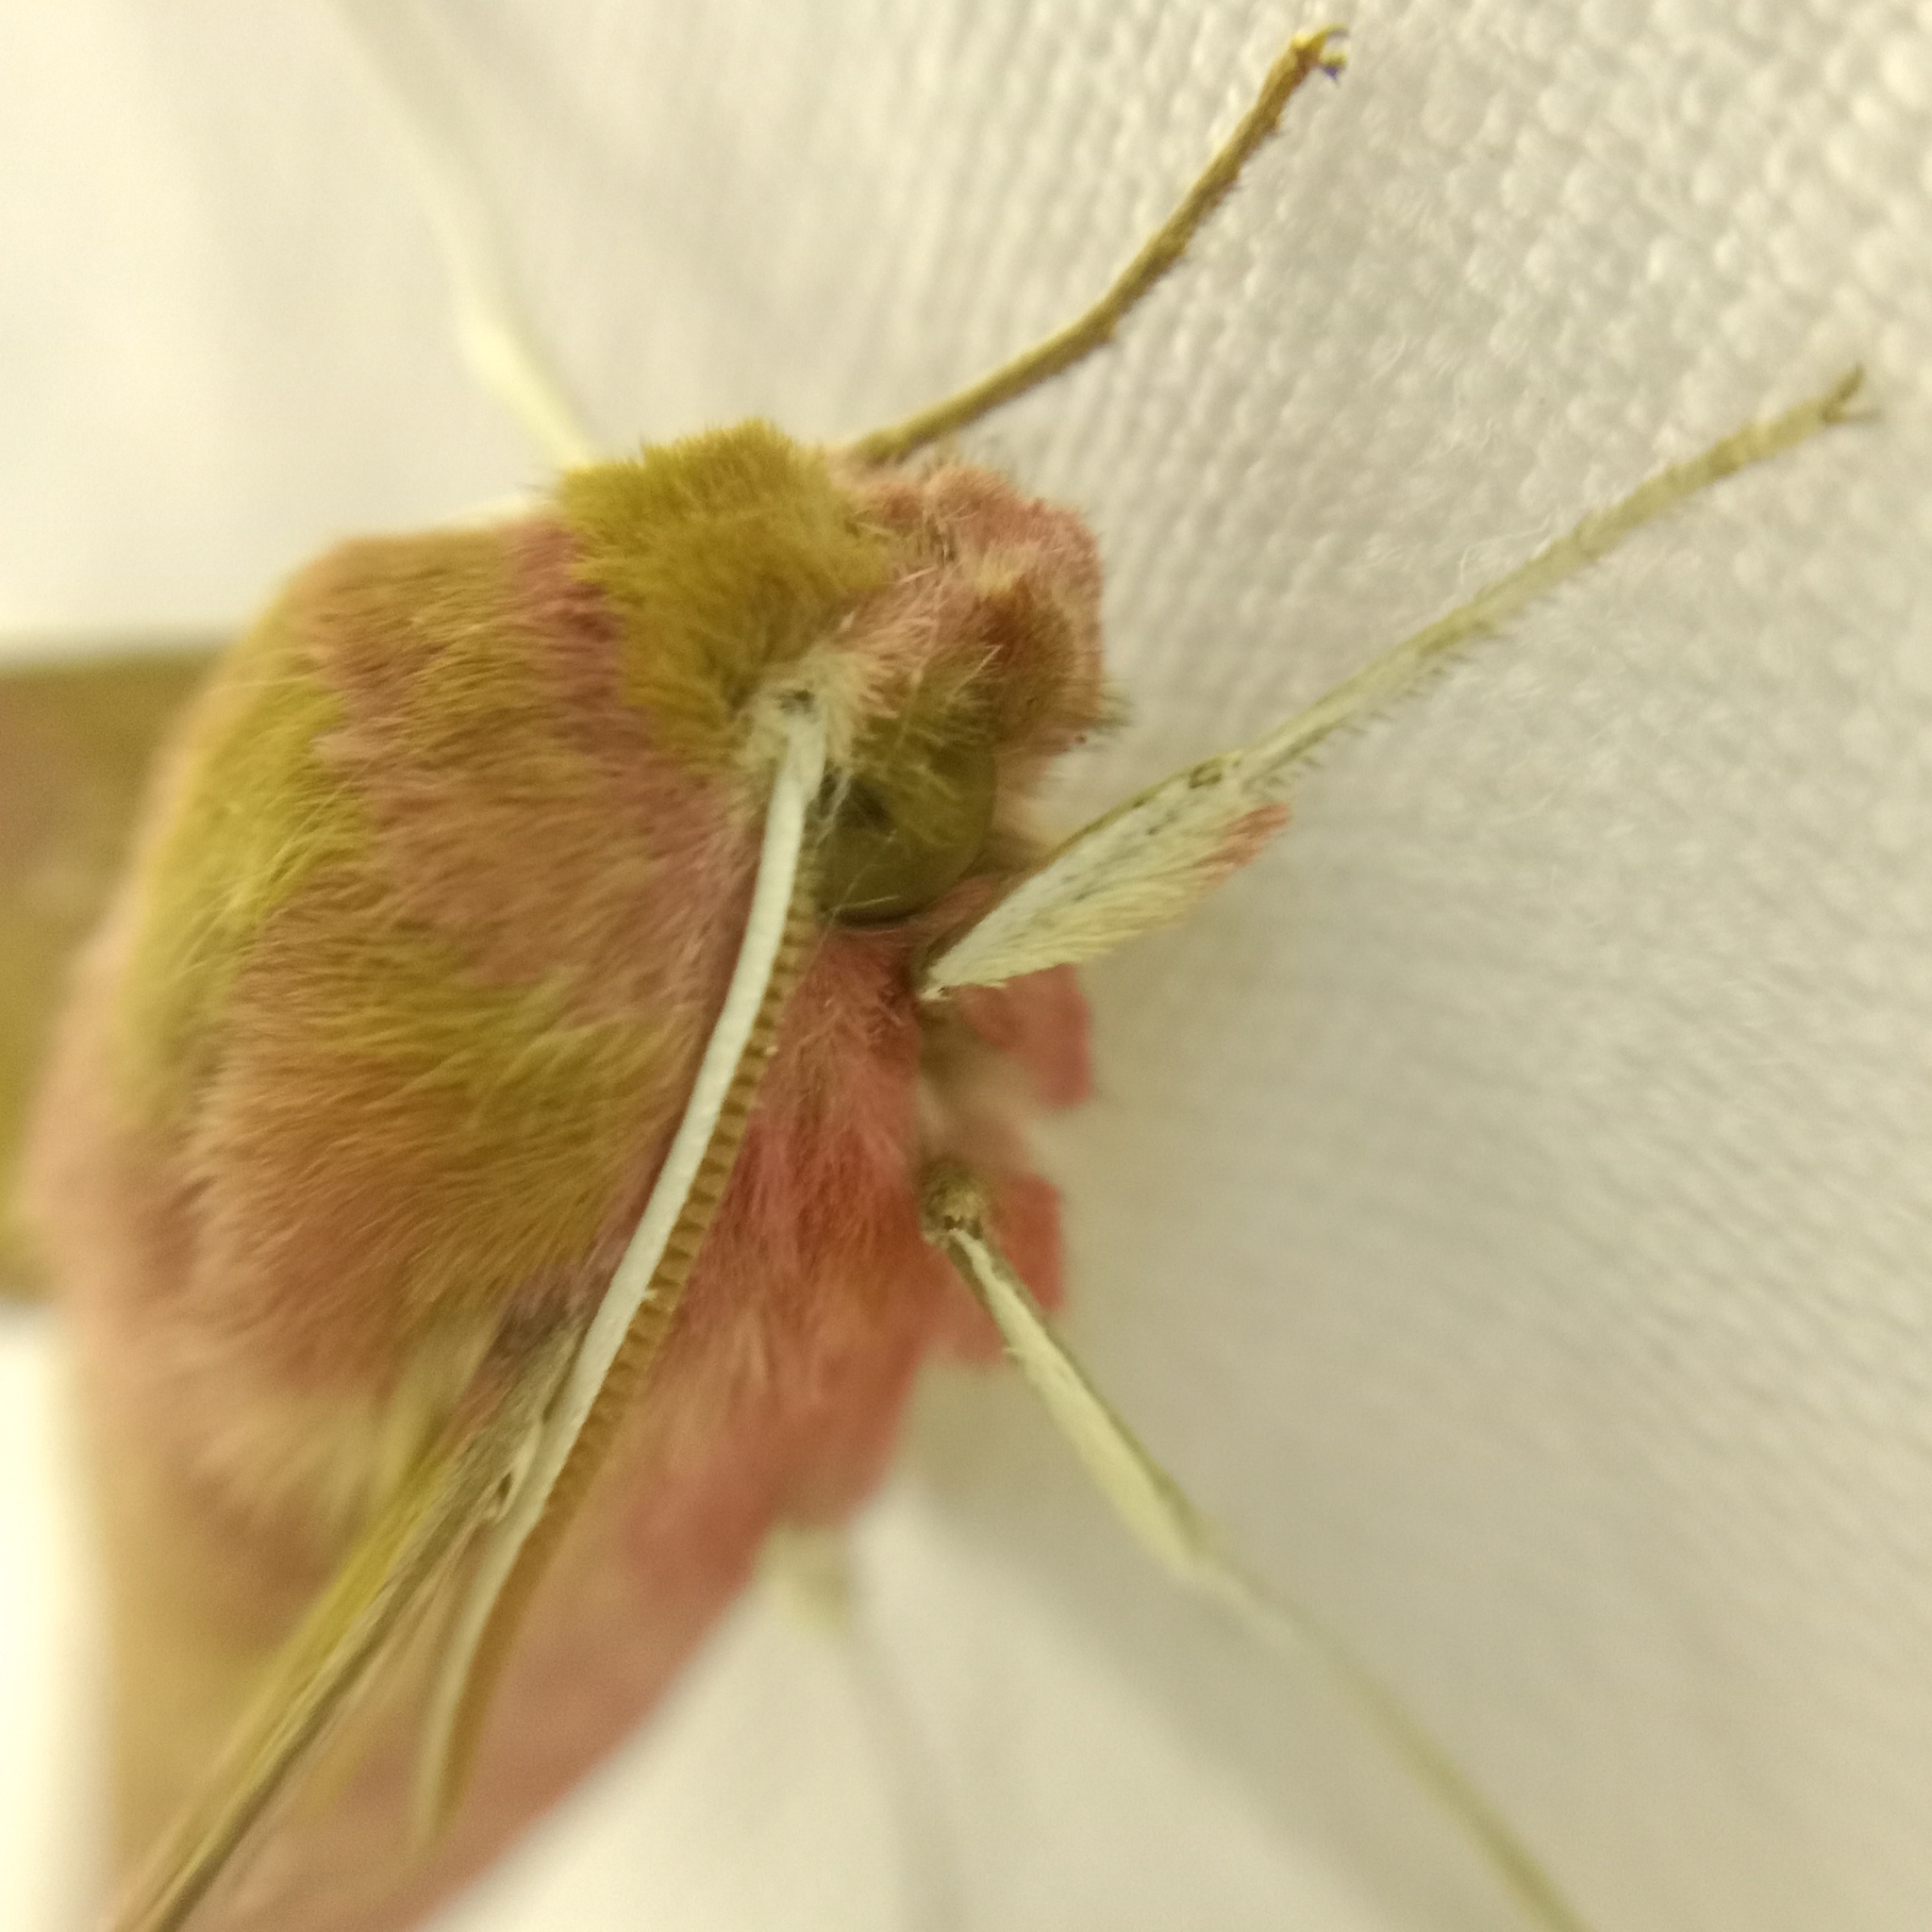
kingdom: Animalia
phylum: Arthropoda
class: Insecta
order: Lepidoptera
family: Sphingidae
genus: Deilephila
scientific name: Deilephila porcellus
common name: Small elephant hawk-moth
